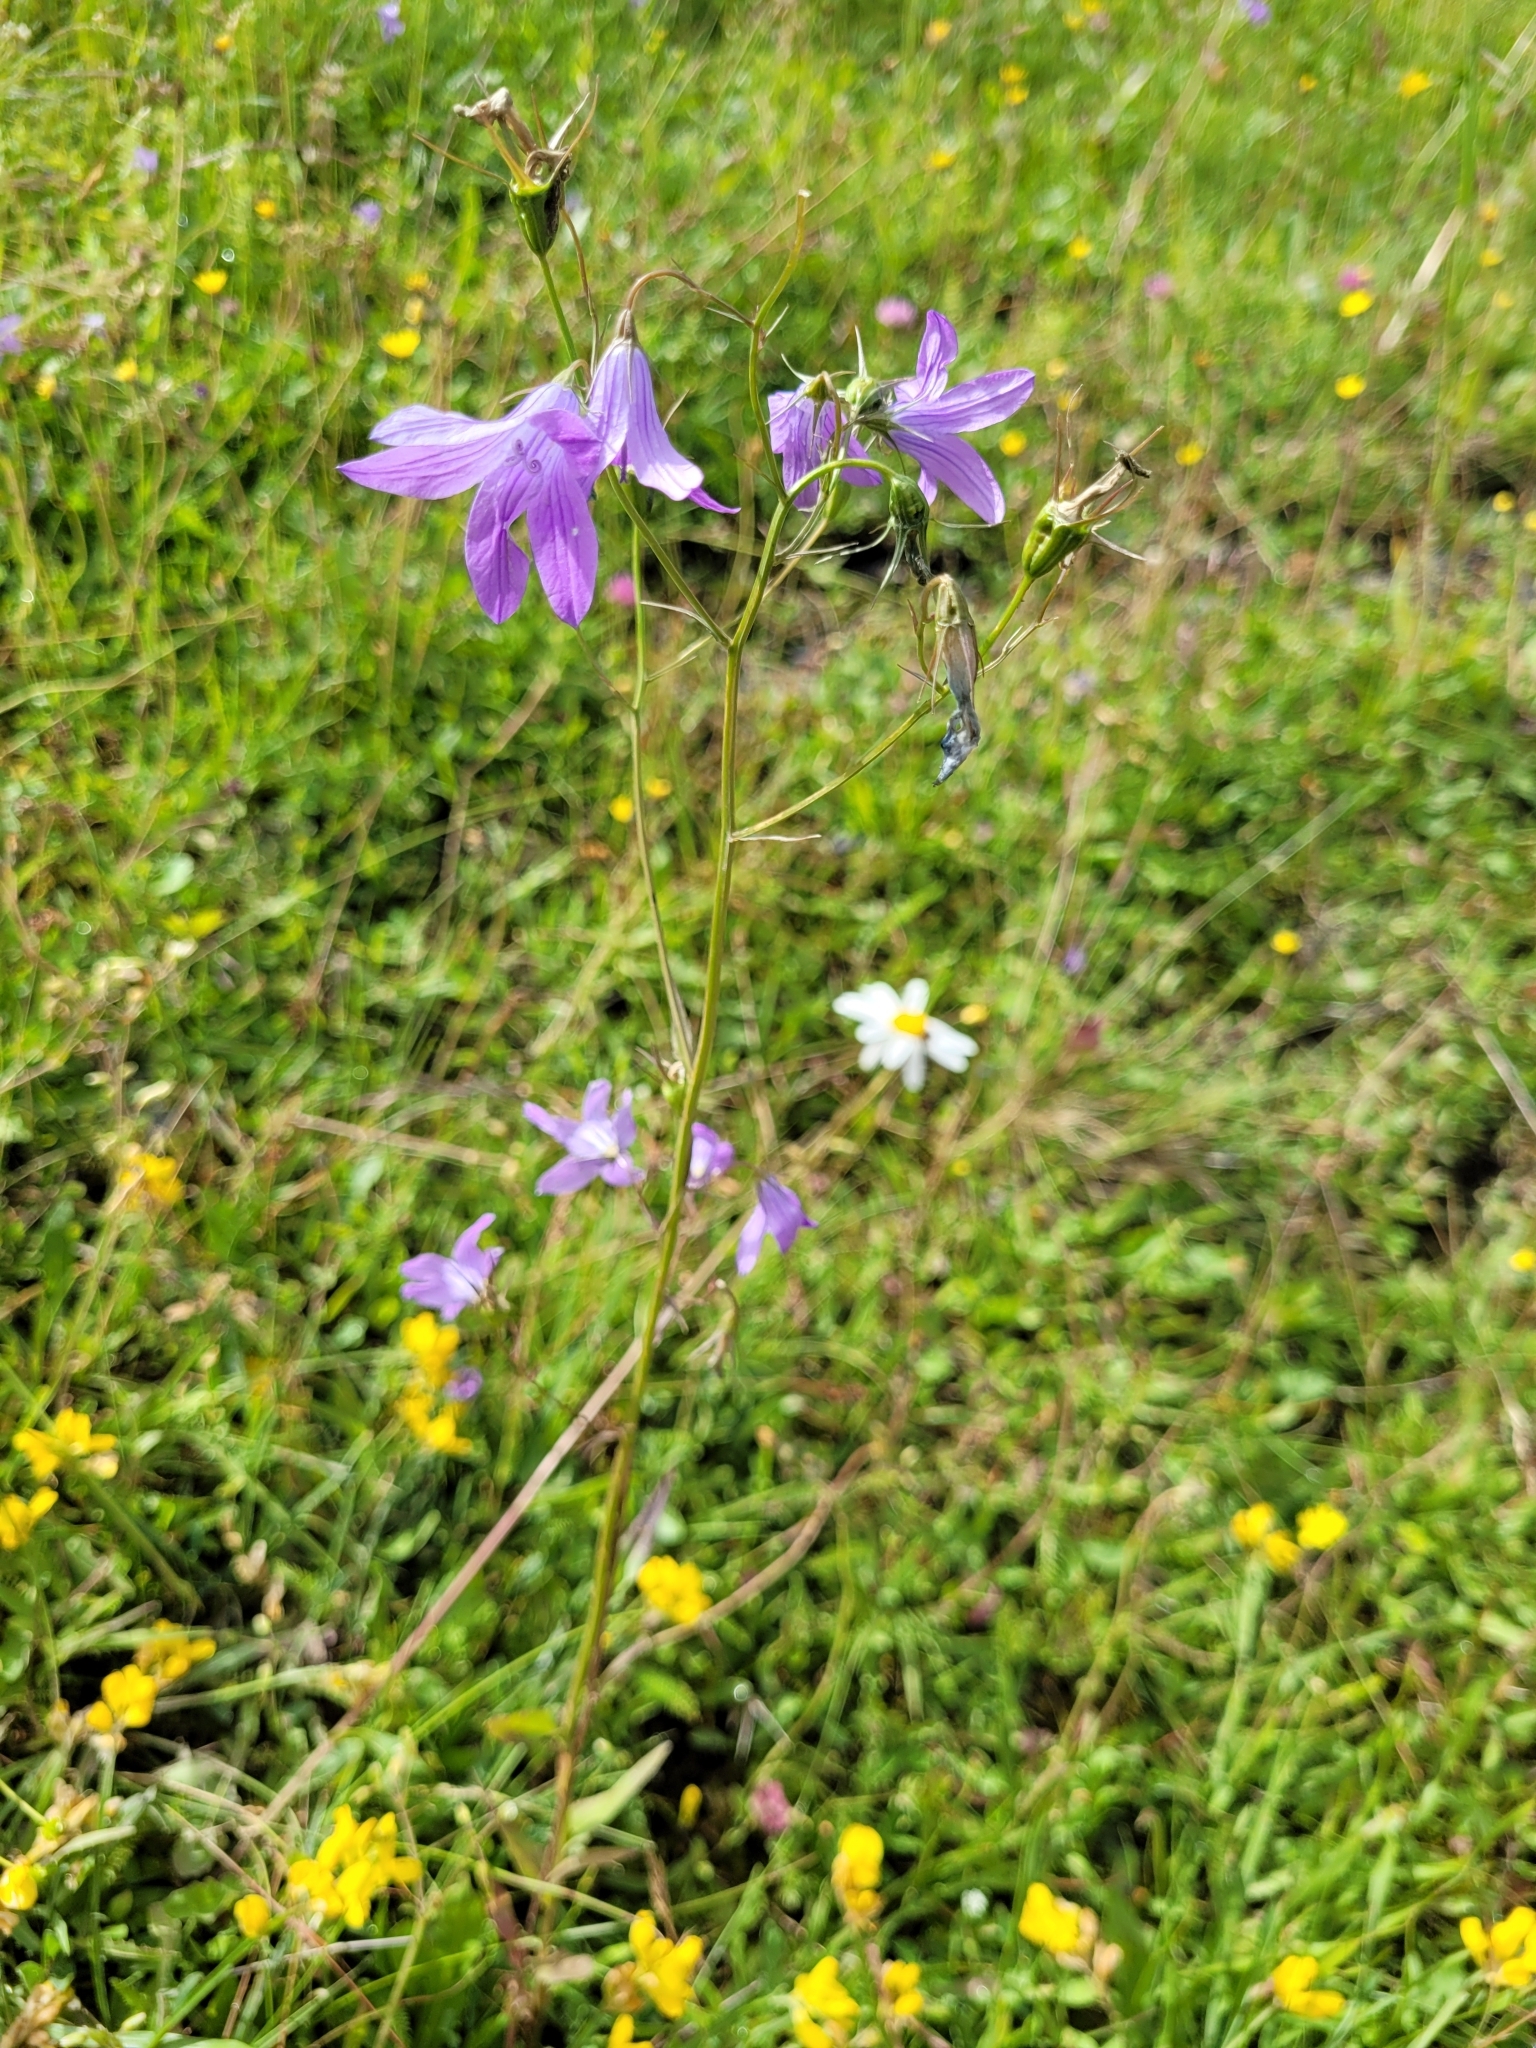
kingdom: Plantae
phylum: Tracheophyta
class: Magnoliopsida
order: Asterales
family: Campanulaceae
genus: Campanula
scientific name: Campanula patula
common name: Spreading bellflower
